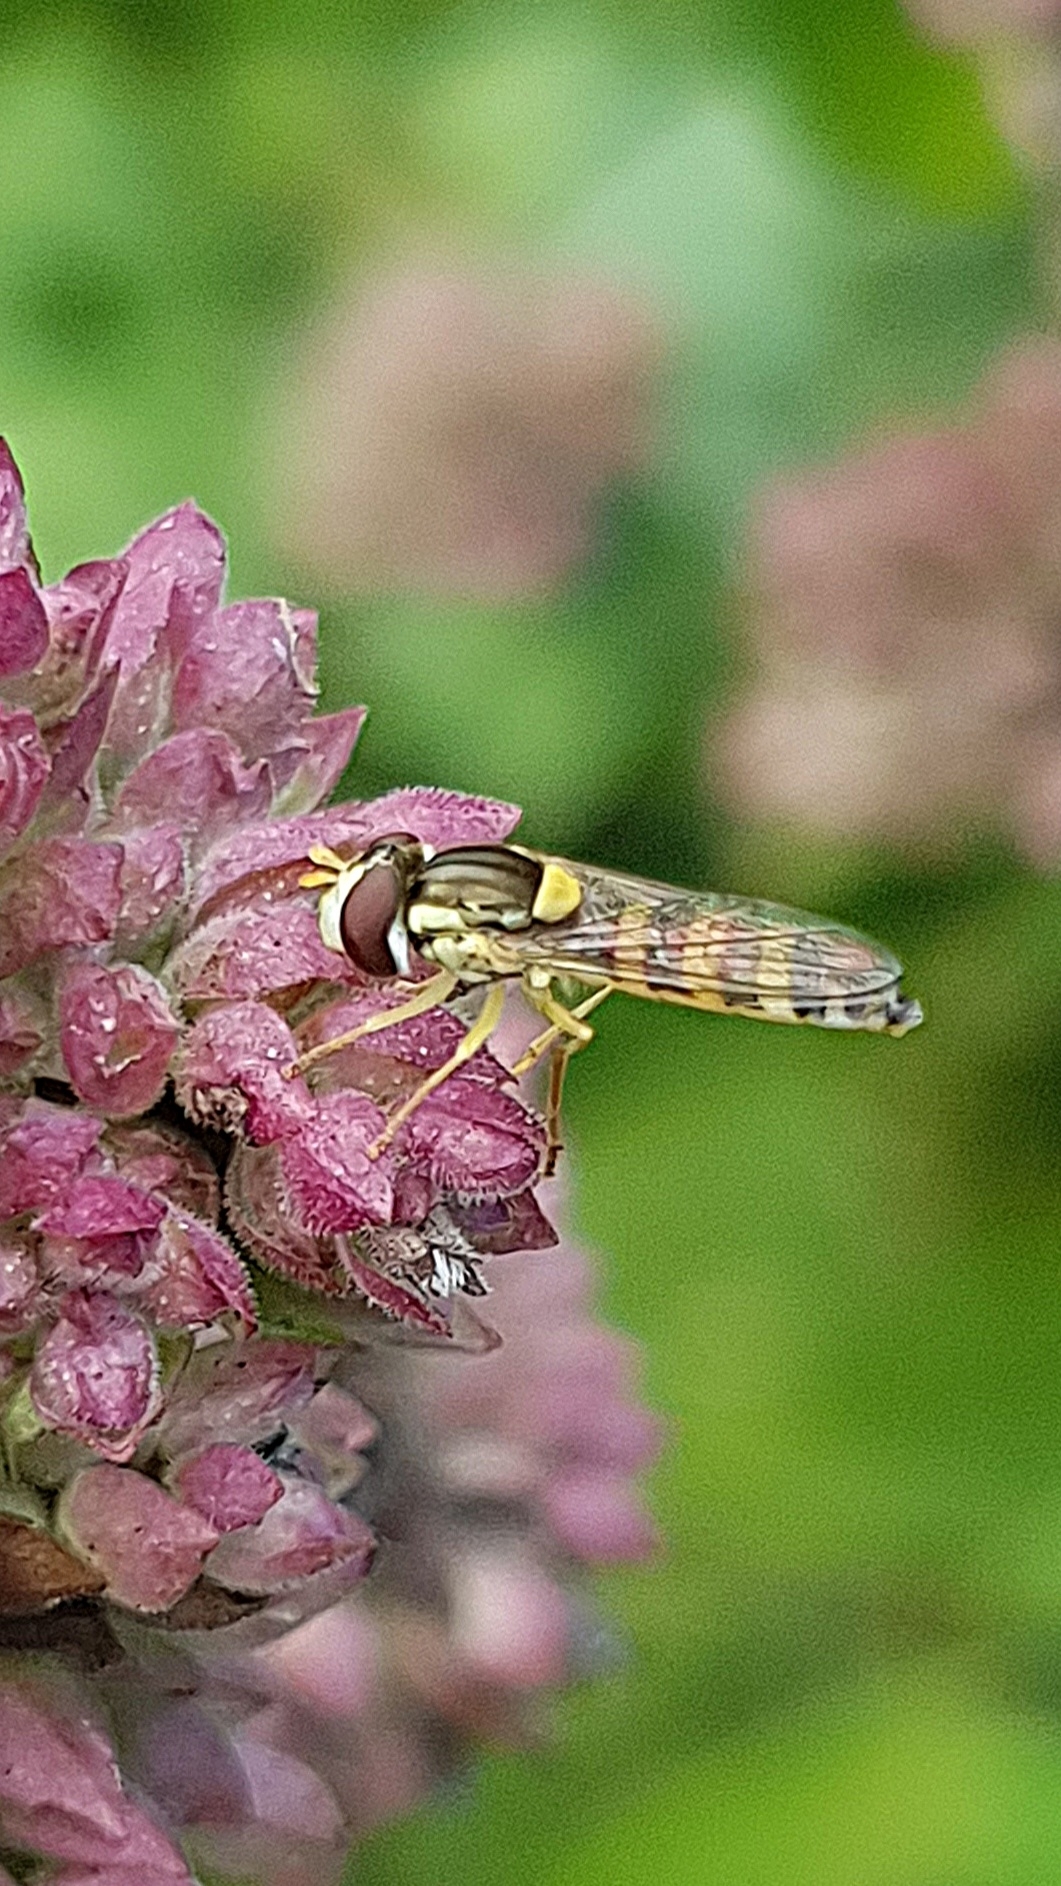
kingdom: Animalia
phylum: Arthropoda
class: Insecta
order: Diptera
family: Syrphidae
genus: Sphaerophoria
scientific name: Sphaerophoria
